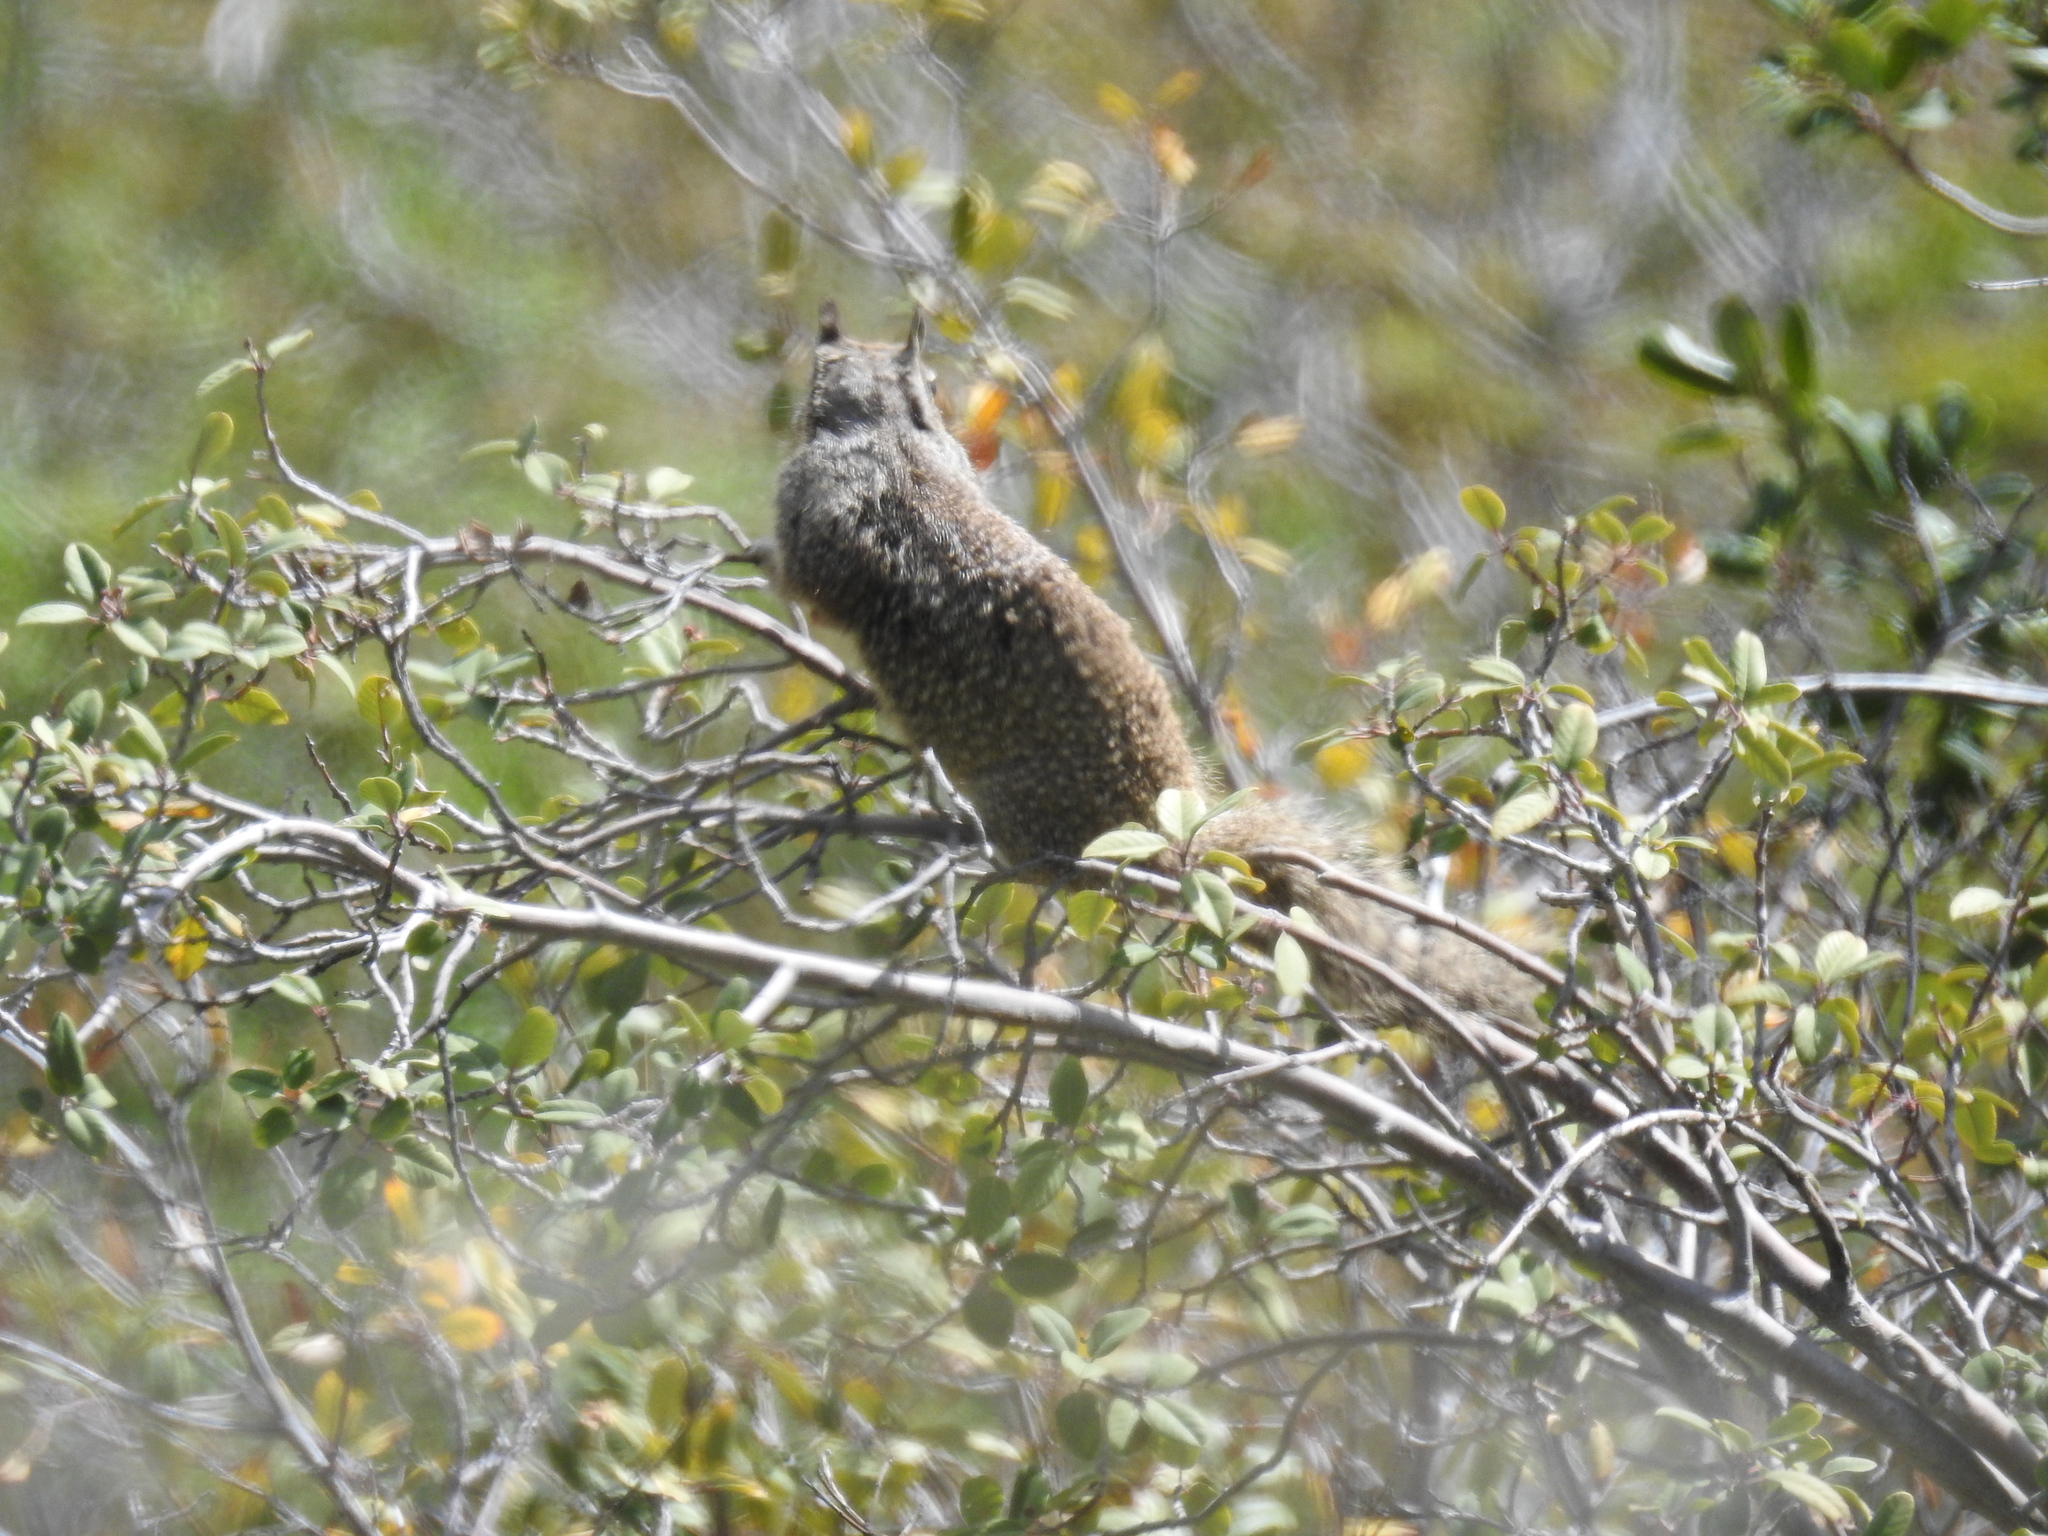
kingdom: Animalia
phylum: Chordata
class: Mammalia
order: Rodentia
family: Sciuridae
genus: Otospermophilus
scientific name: Otospermophilus beecheyi
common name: California ground squirrel
